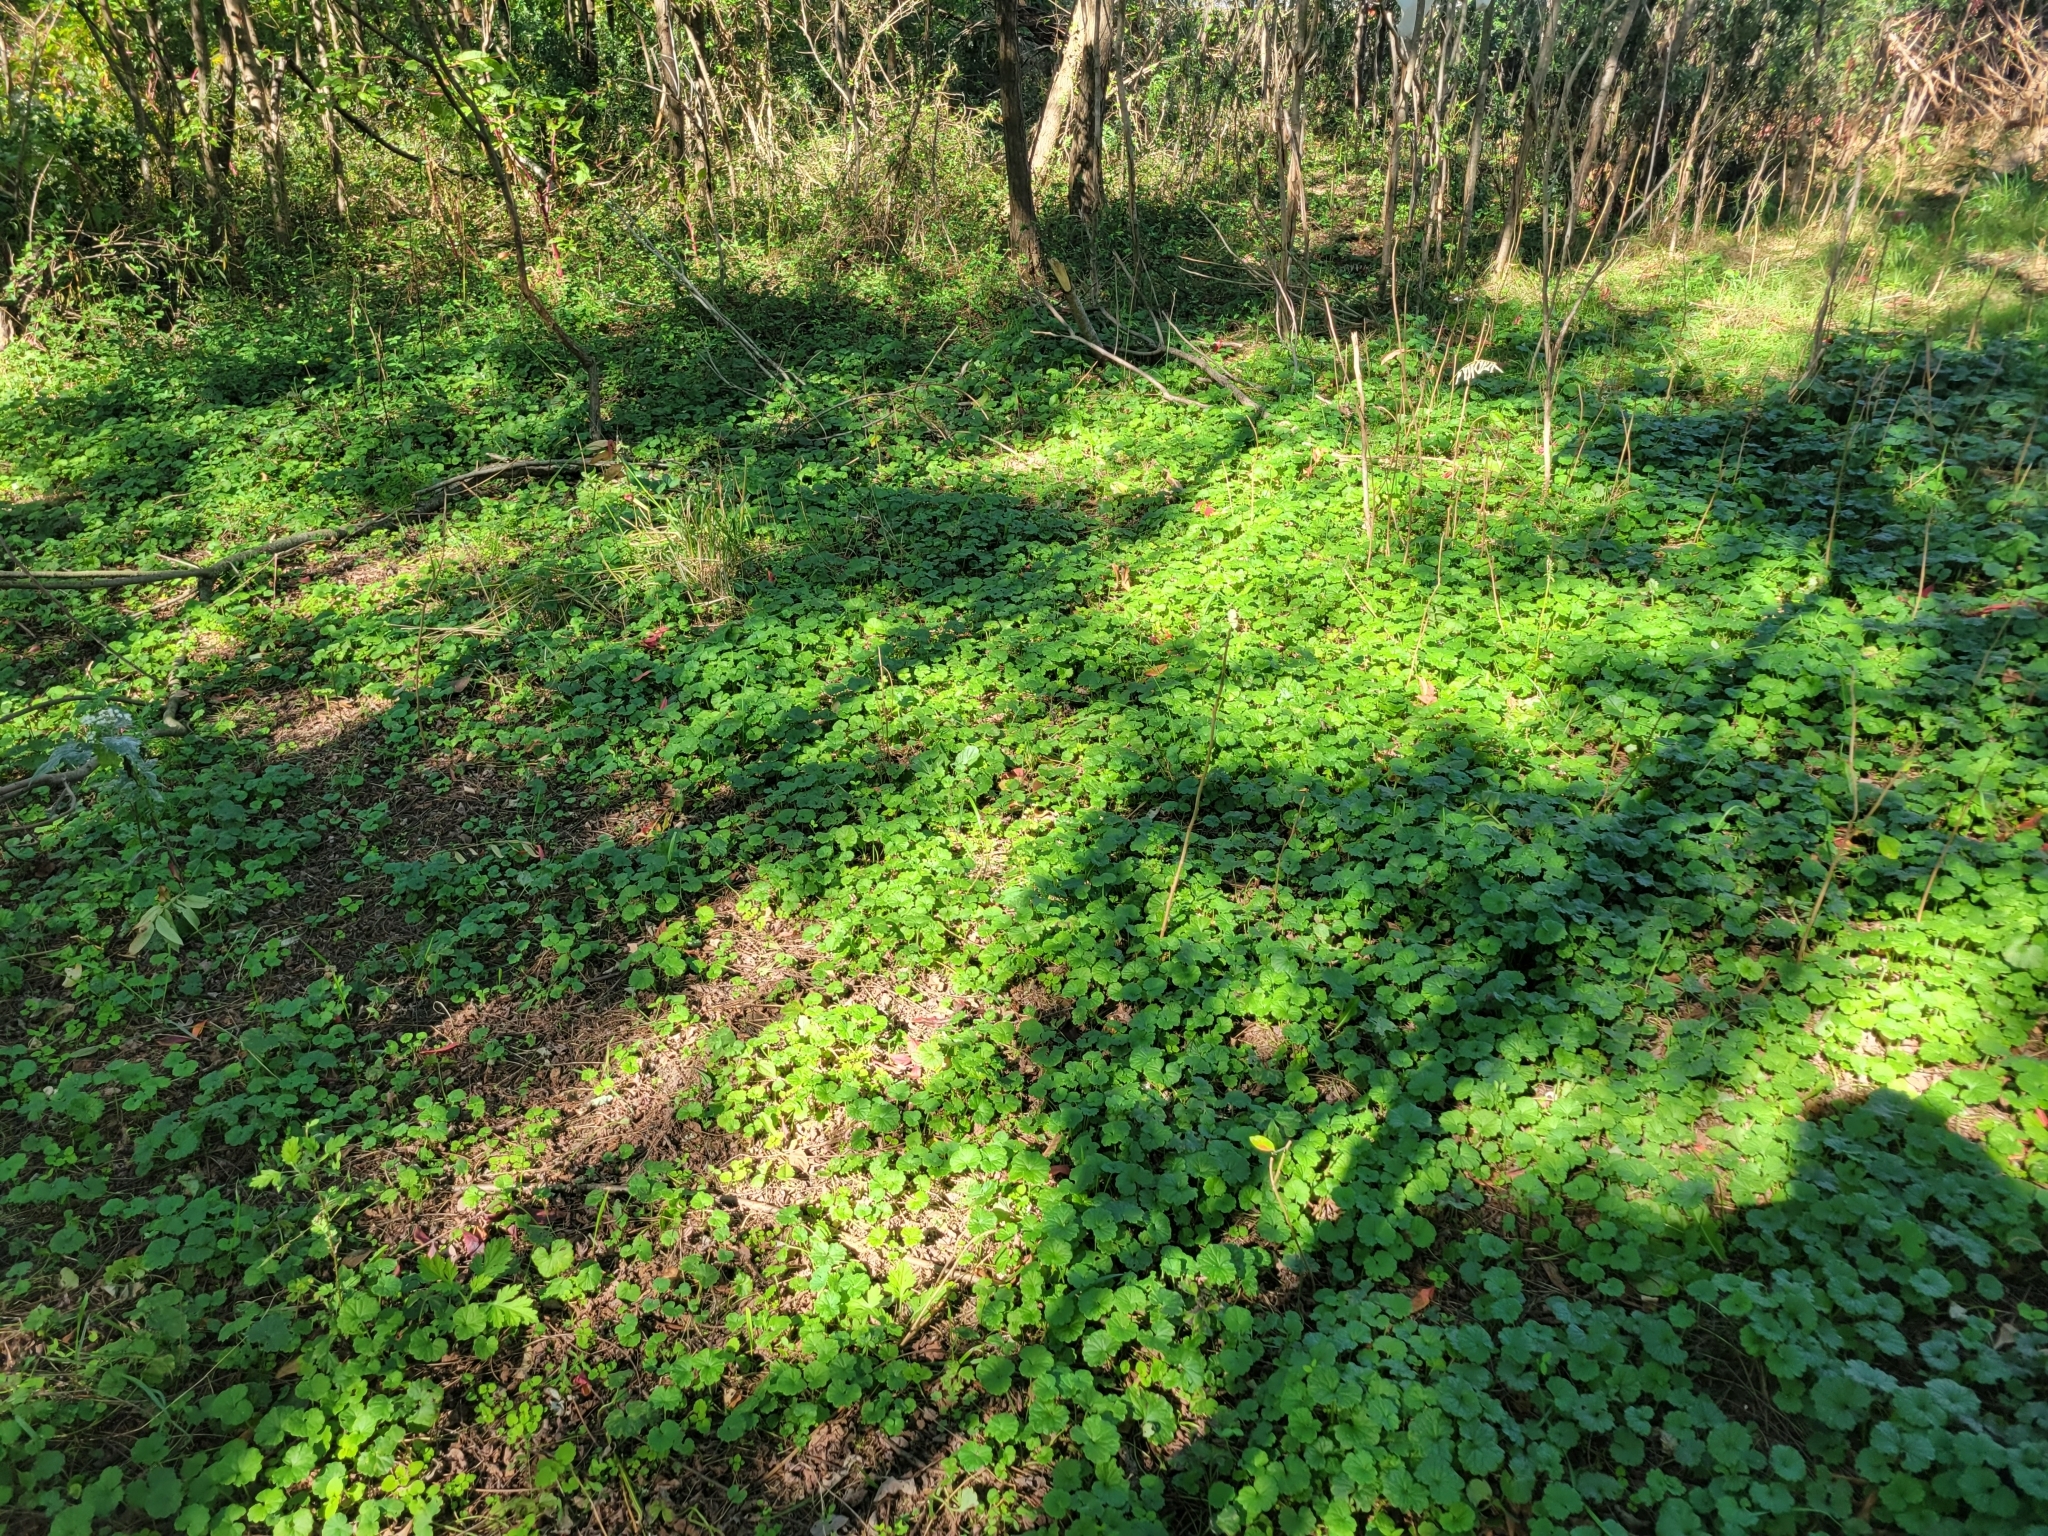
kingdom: Plantae
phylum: Tracheophyta
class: Magnoliopsida
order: Lamiales
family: Lamiaceae
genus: Glechoma
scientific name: Glechoma hederacea
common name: Ground ivy
